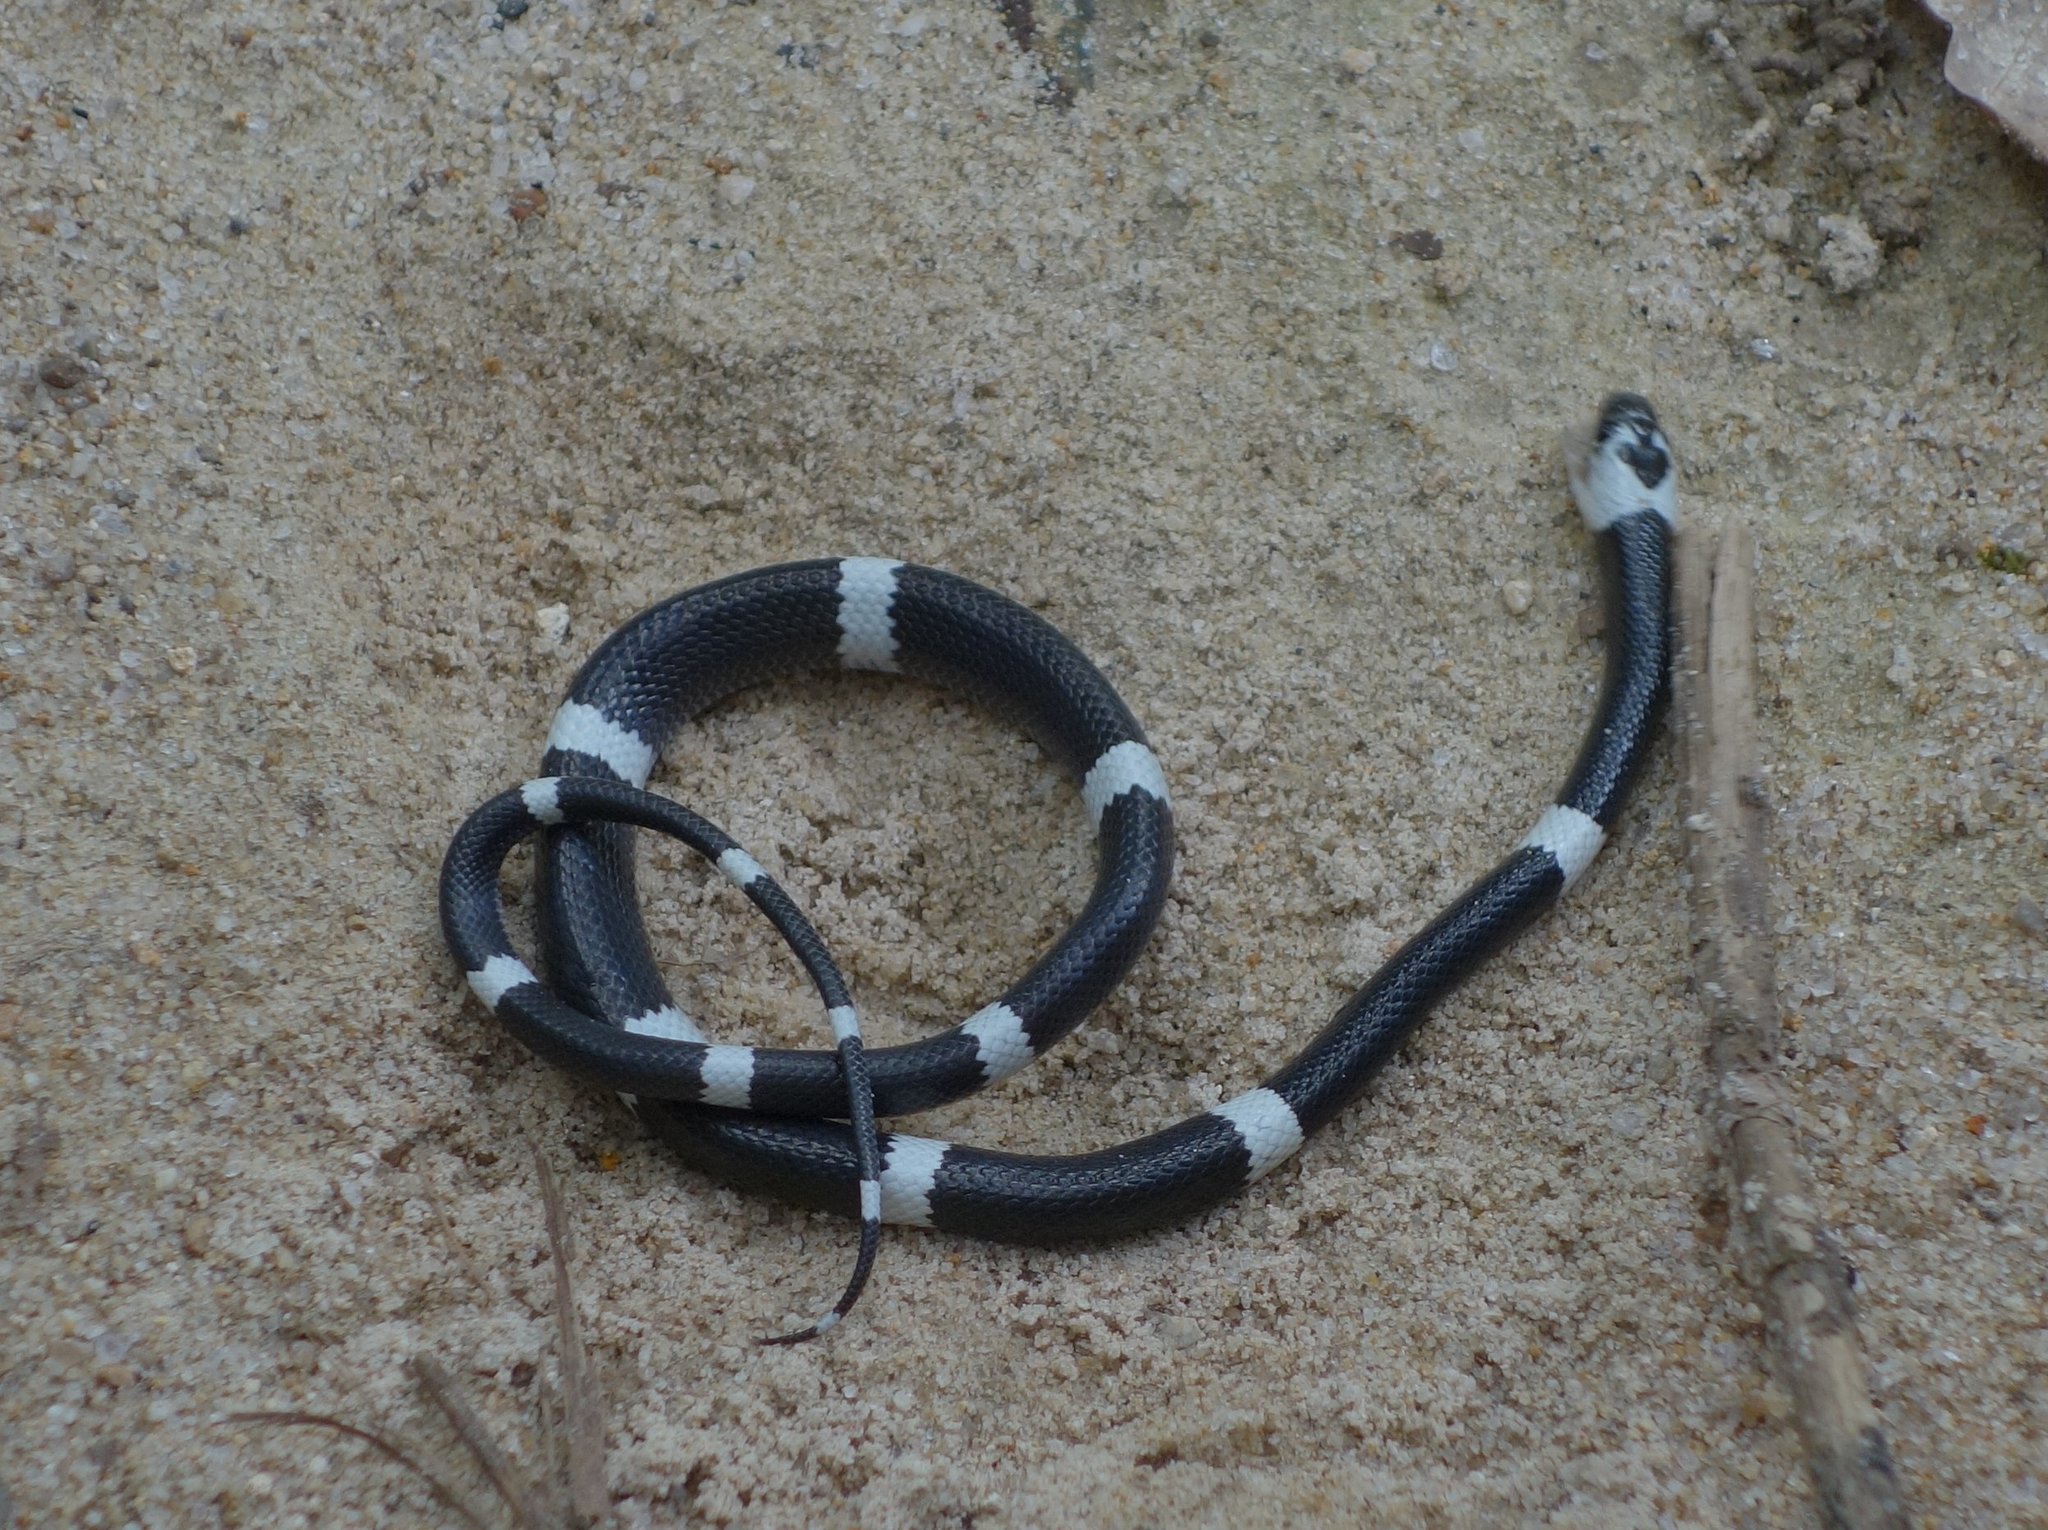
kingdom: Animalia
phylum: Chordata
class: Squamata
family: Colubridae
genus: Lycodon
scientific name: Lycodon subcinctus
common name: Malayan banded wolf snake
